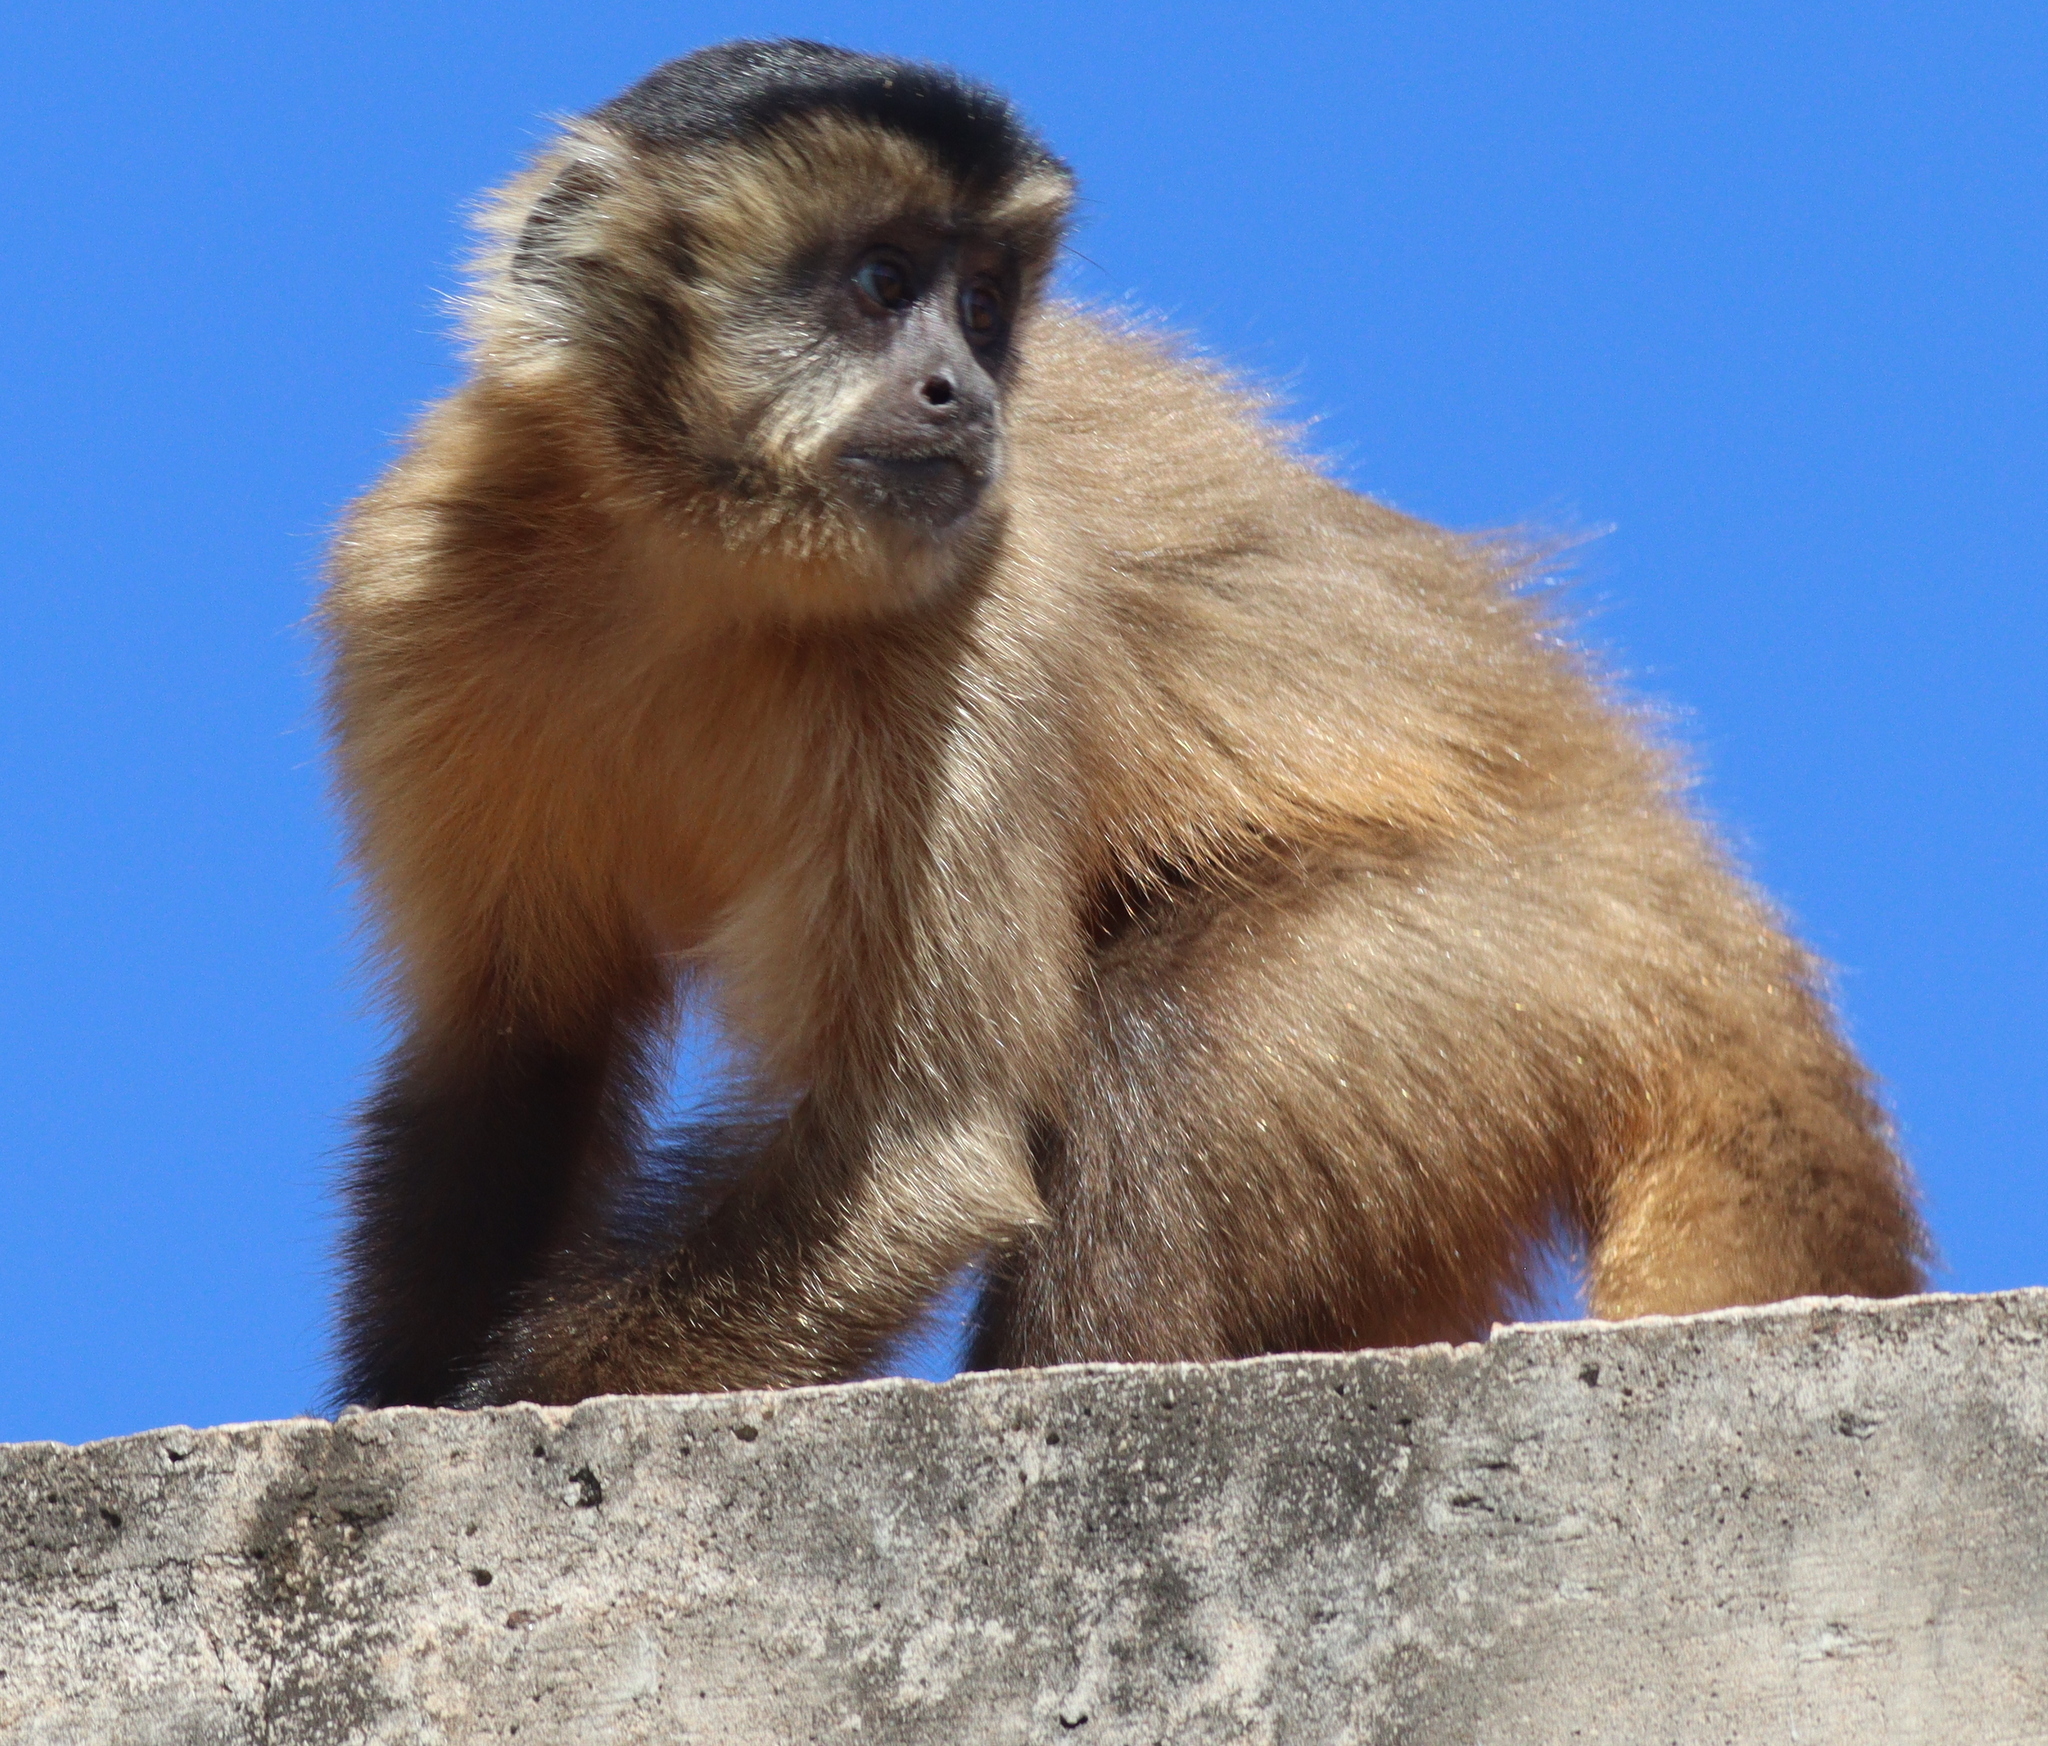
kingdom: Animalia
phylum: Chordata
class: Mammalia
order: Primates
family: Cebidae
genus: Sapajus
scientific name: Sapajus cay
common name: Hooded capuchin
